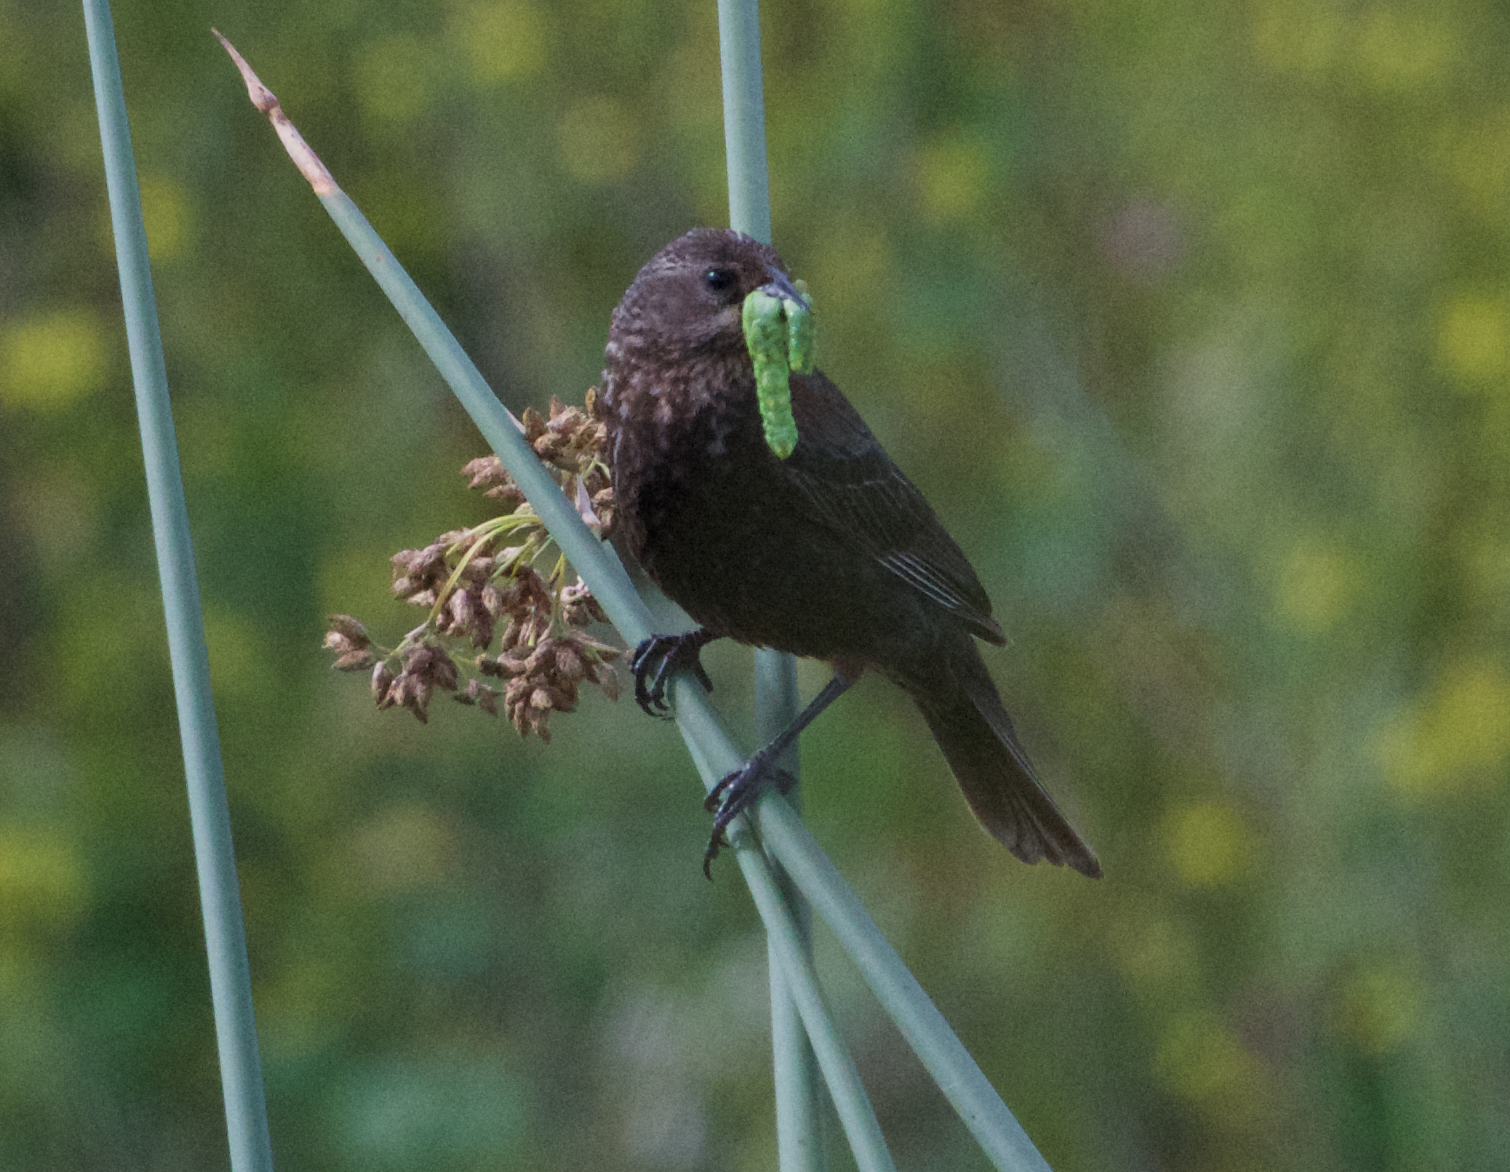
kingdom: Animalia
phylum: Chordata
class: Aves
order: Passeriformes
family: Icteridae
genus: Agelaius
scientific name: Agelaius phoeniceus
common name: Red-winged blackbird
